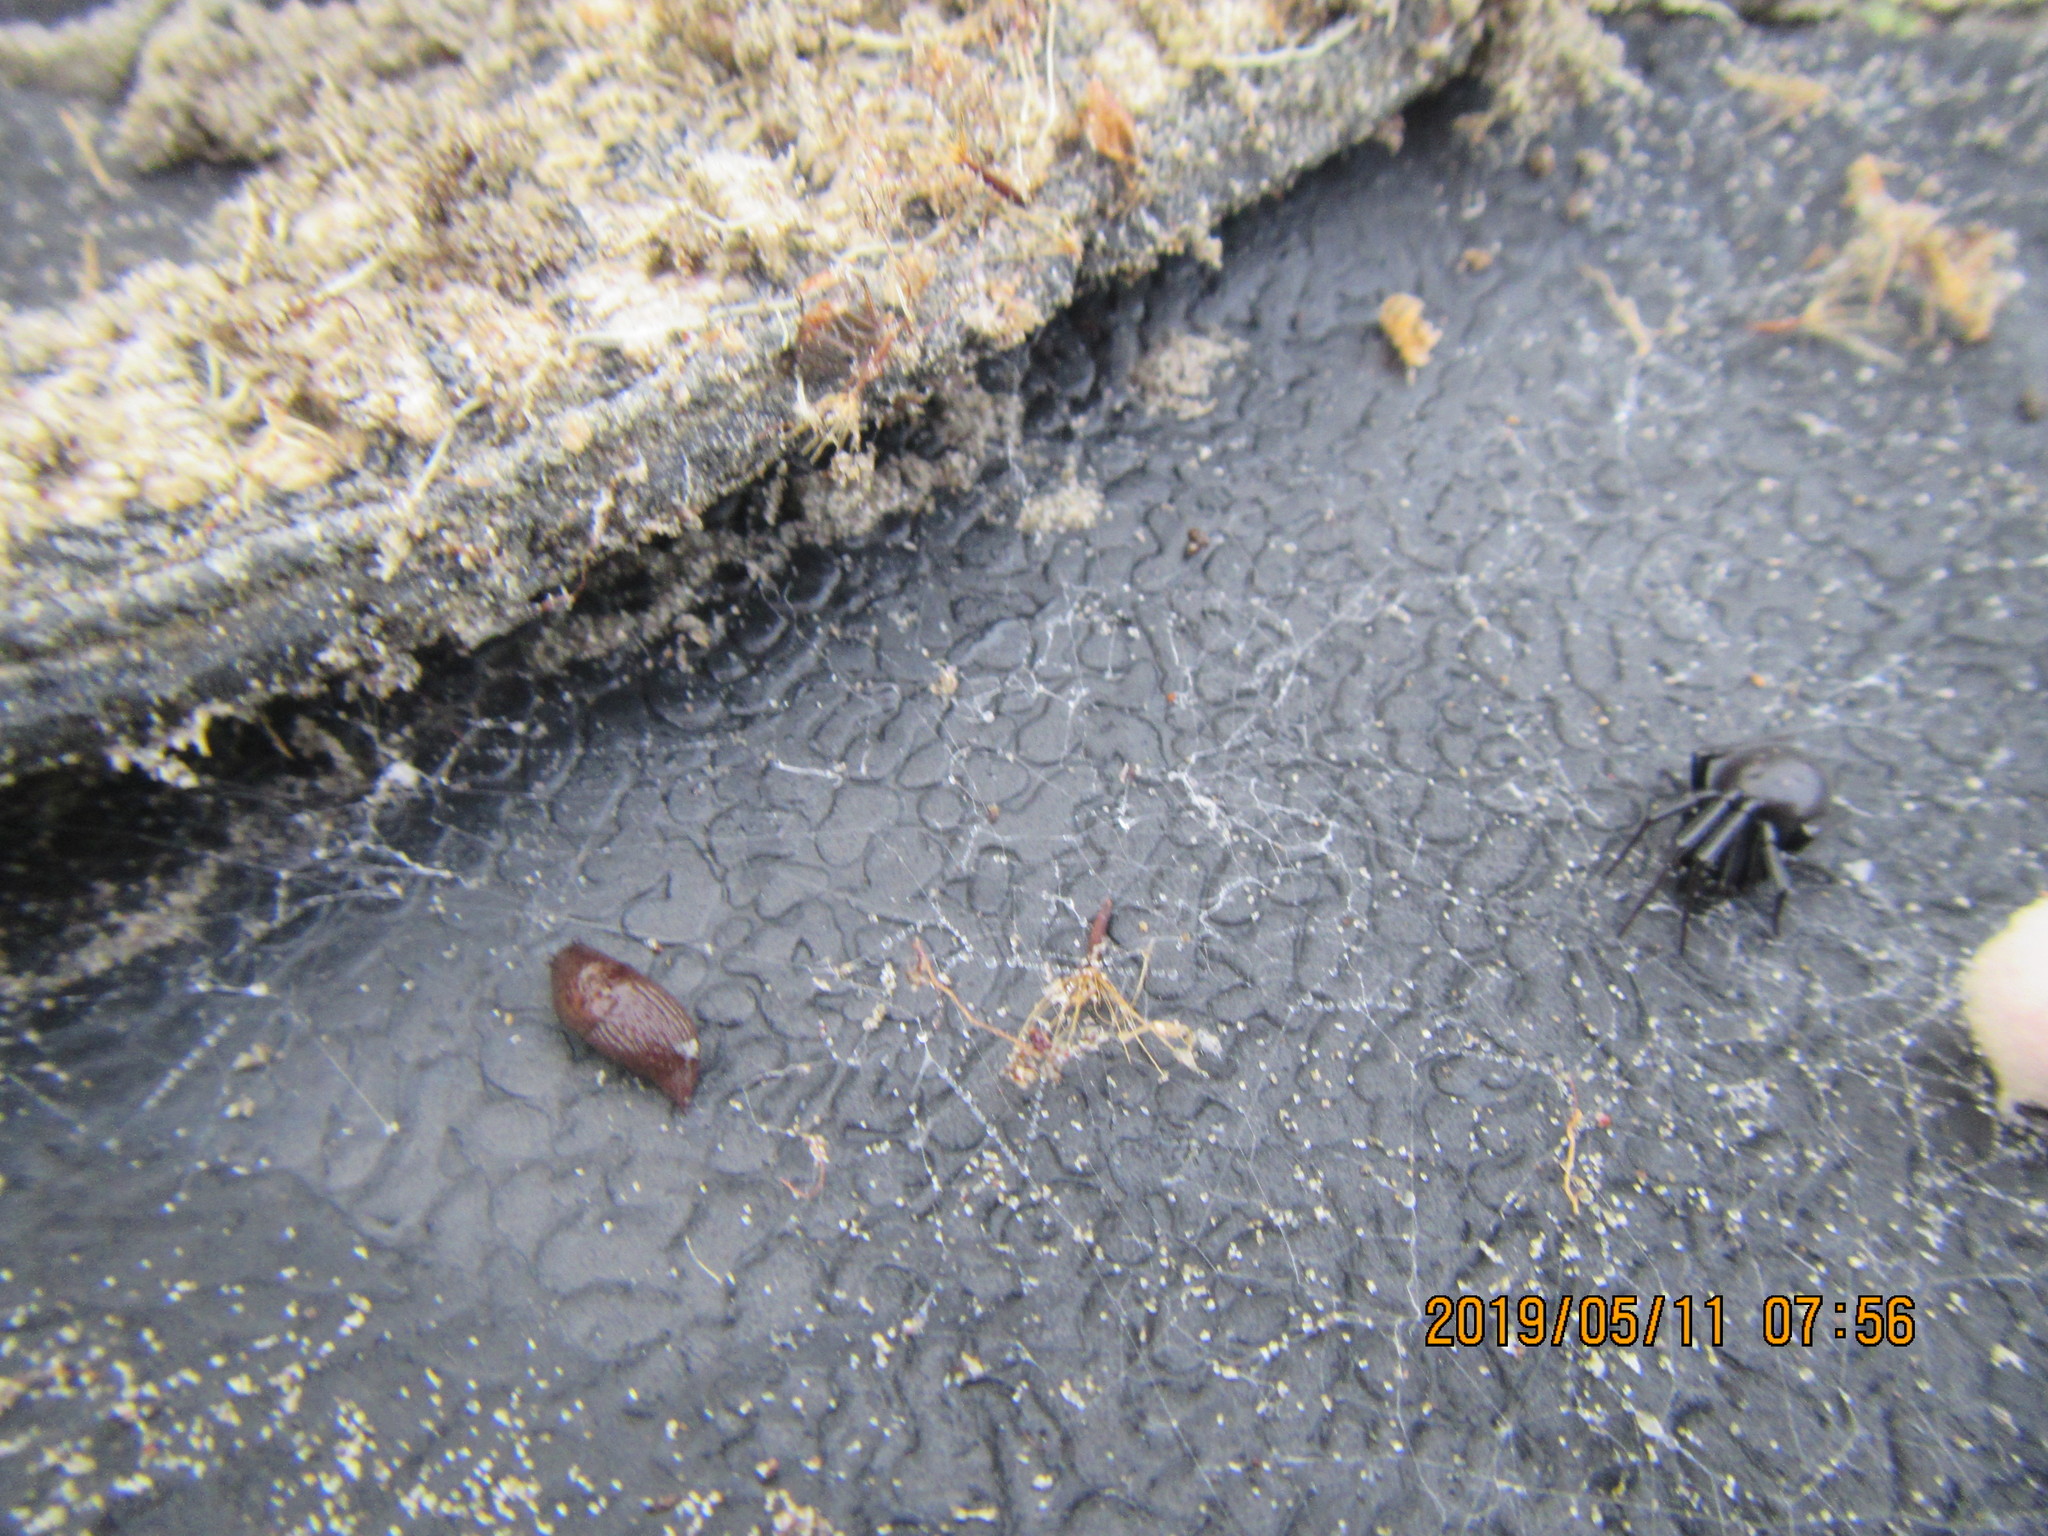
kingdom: Animalia
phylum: Arthropoda
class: Arachnida
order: Araneae
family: Theridiidae
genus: Steatoda
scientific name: Steatoda capensis
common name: Cobweb weaver
